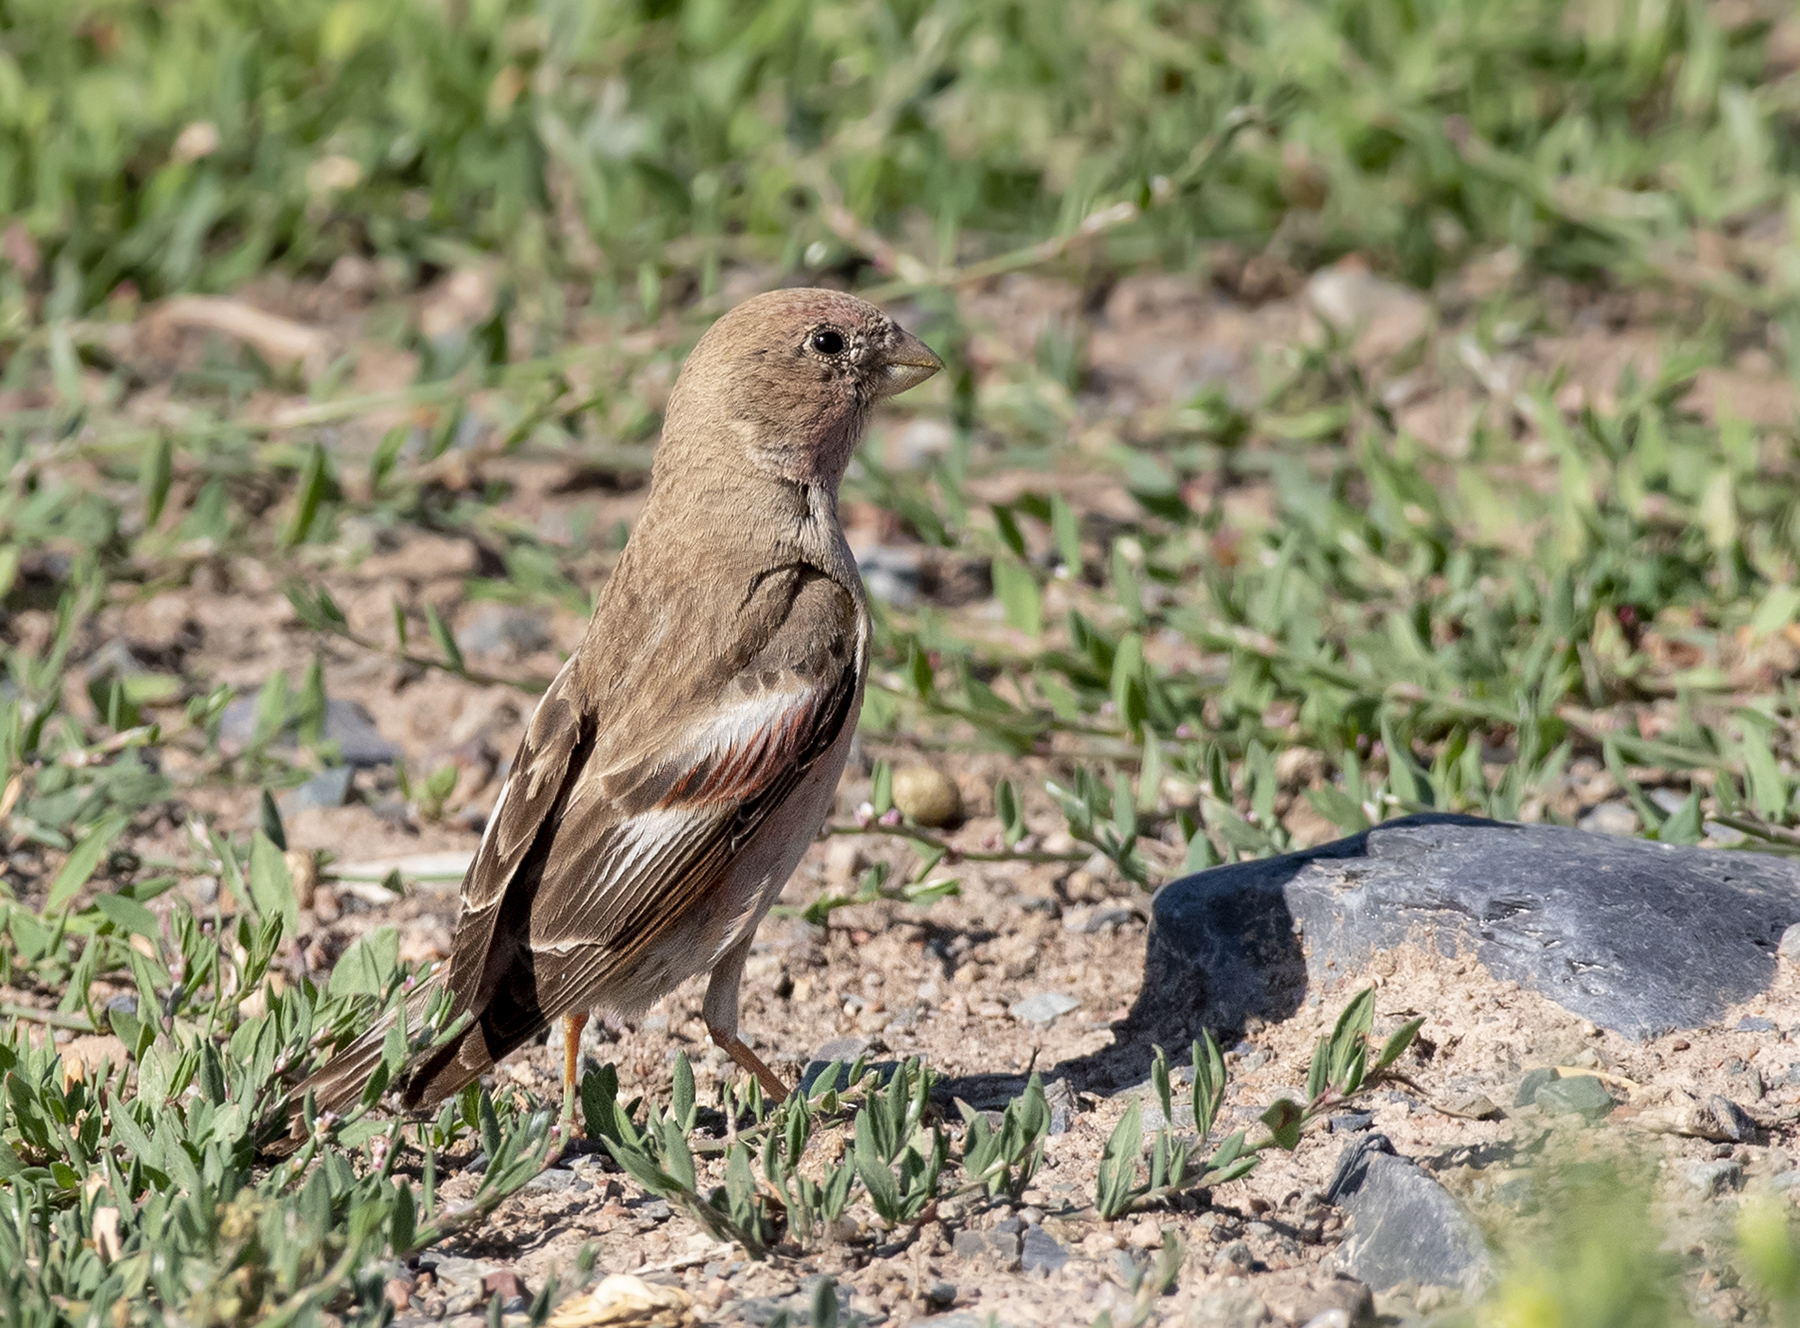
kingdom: Animalia
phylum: Chordata
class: Aves
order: Passeriformes
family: Fringillidae
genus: Bucanetes
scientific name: Bucanetes mongolicus
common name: Mongolian finch
